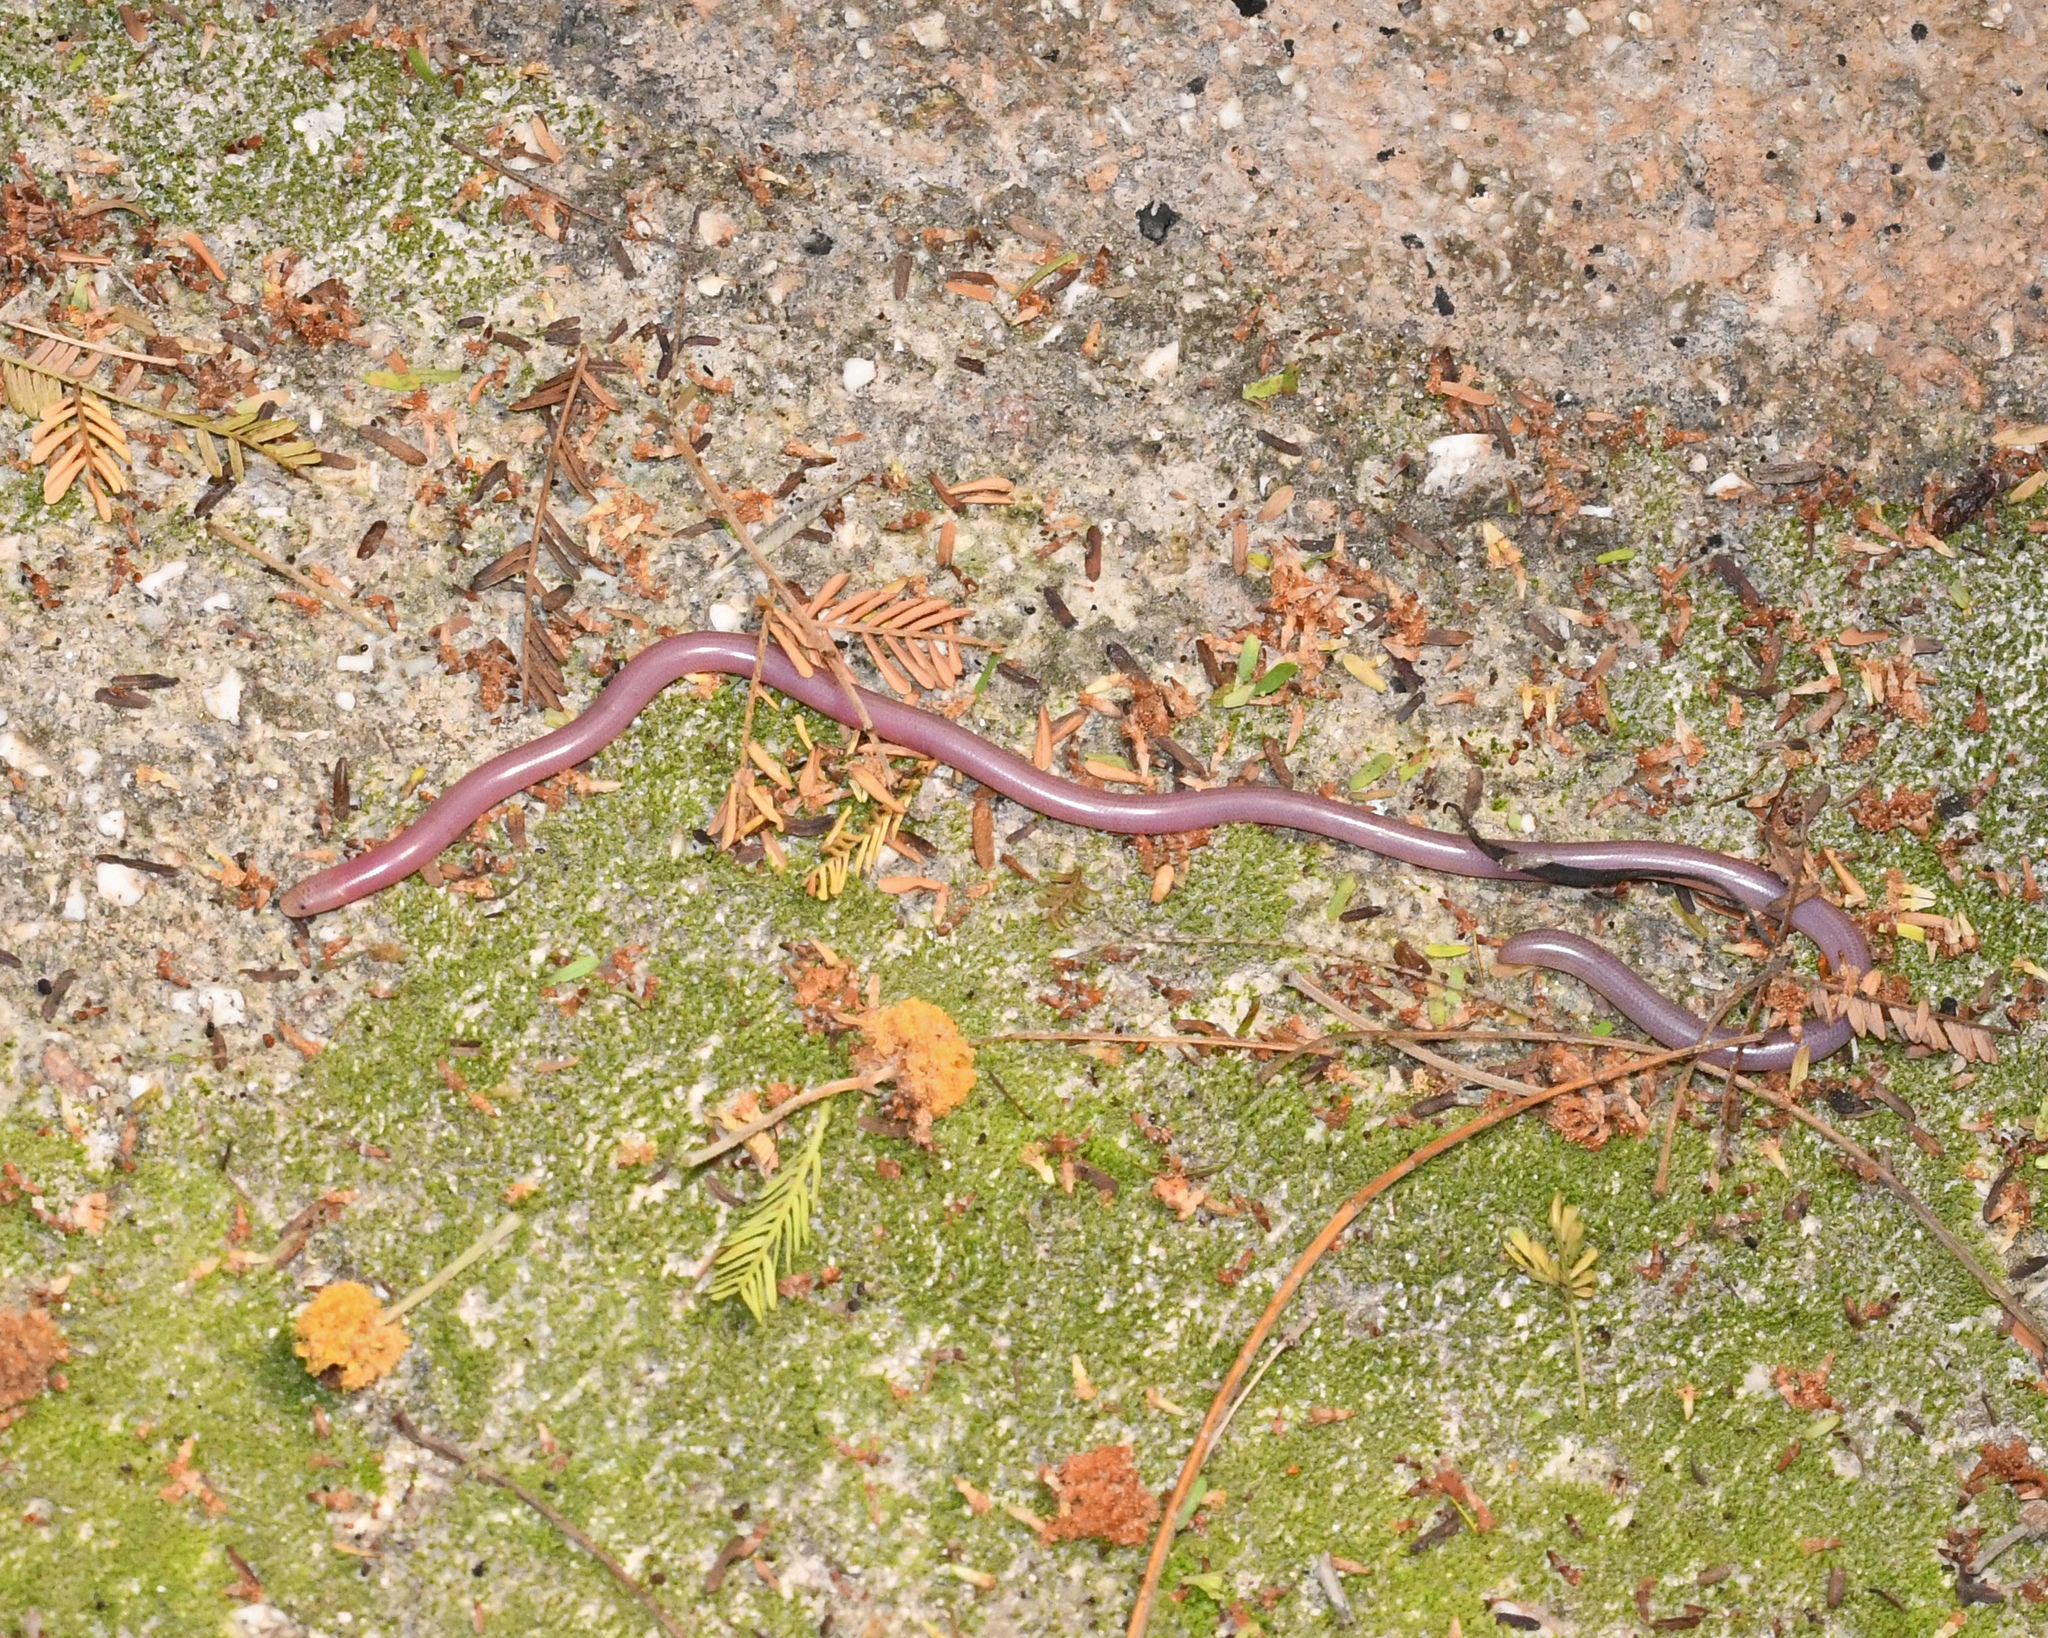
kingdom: Animalia
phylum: Chordata
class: Squamata
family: Typhlopidae
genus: Typhlops
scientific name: Typhlops sulcatus
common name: Island worm snake
